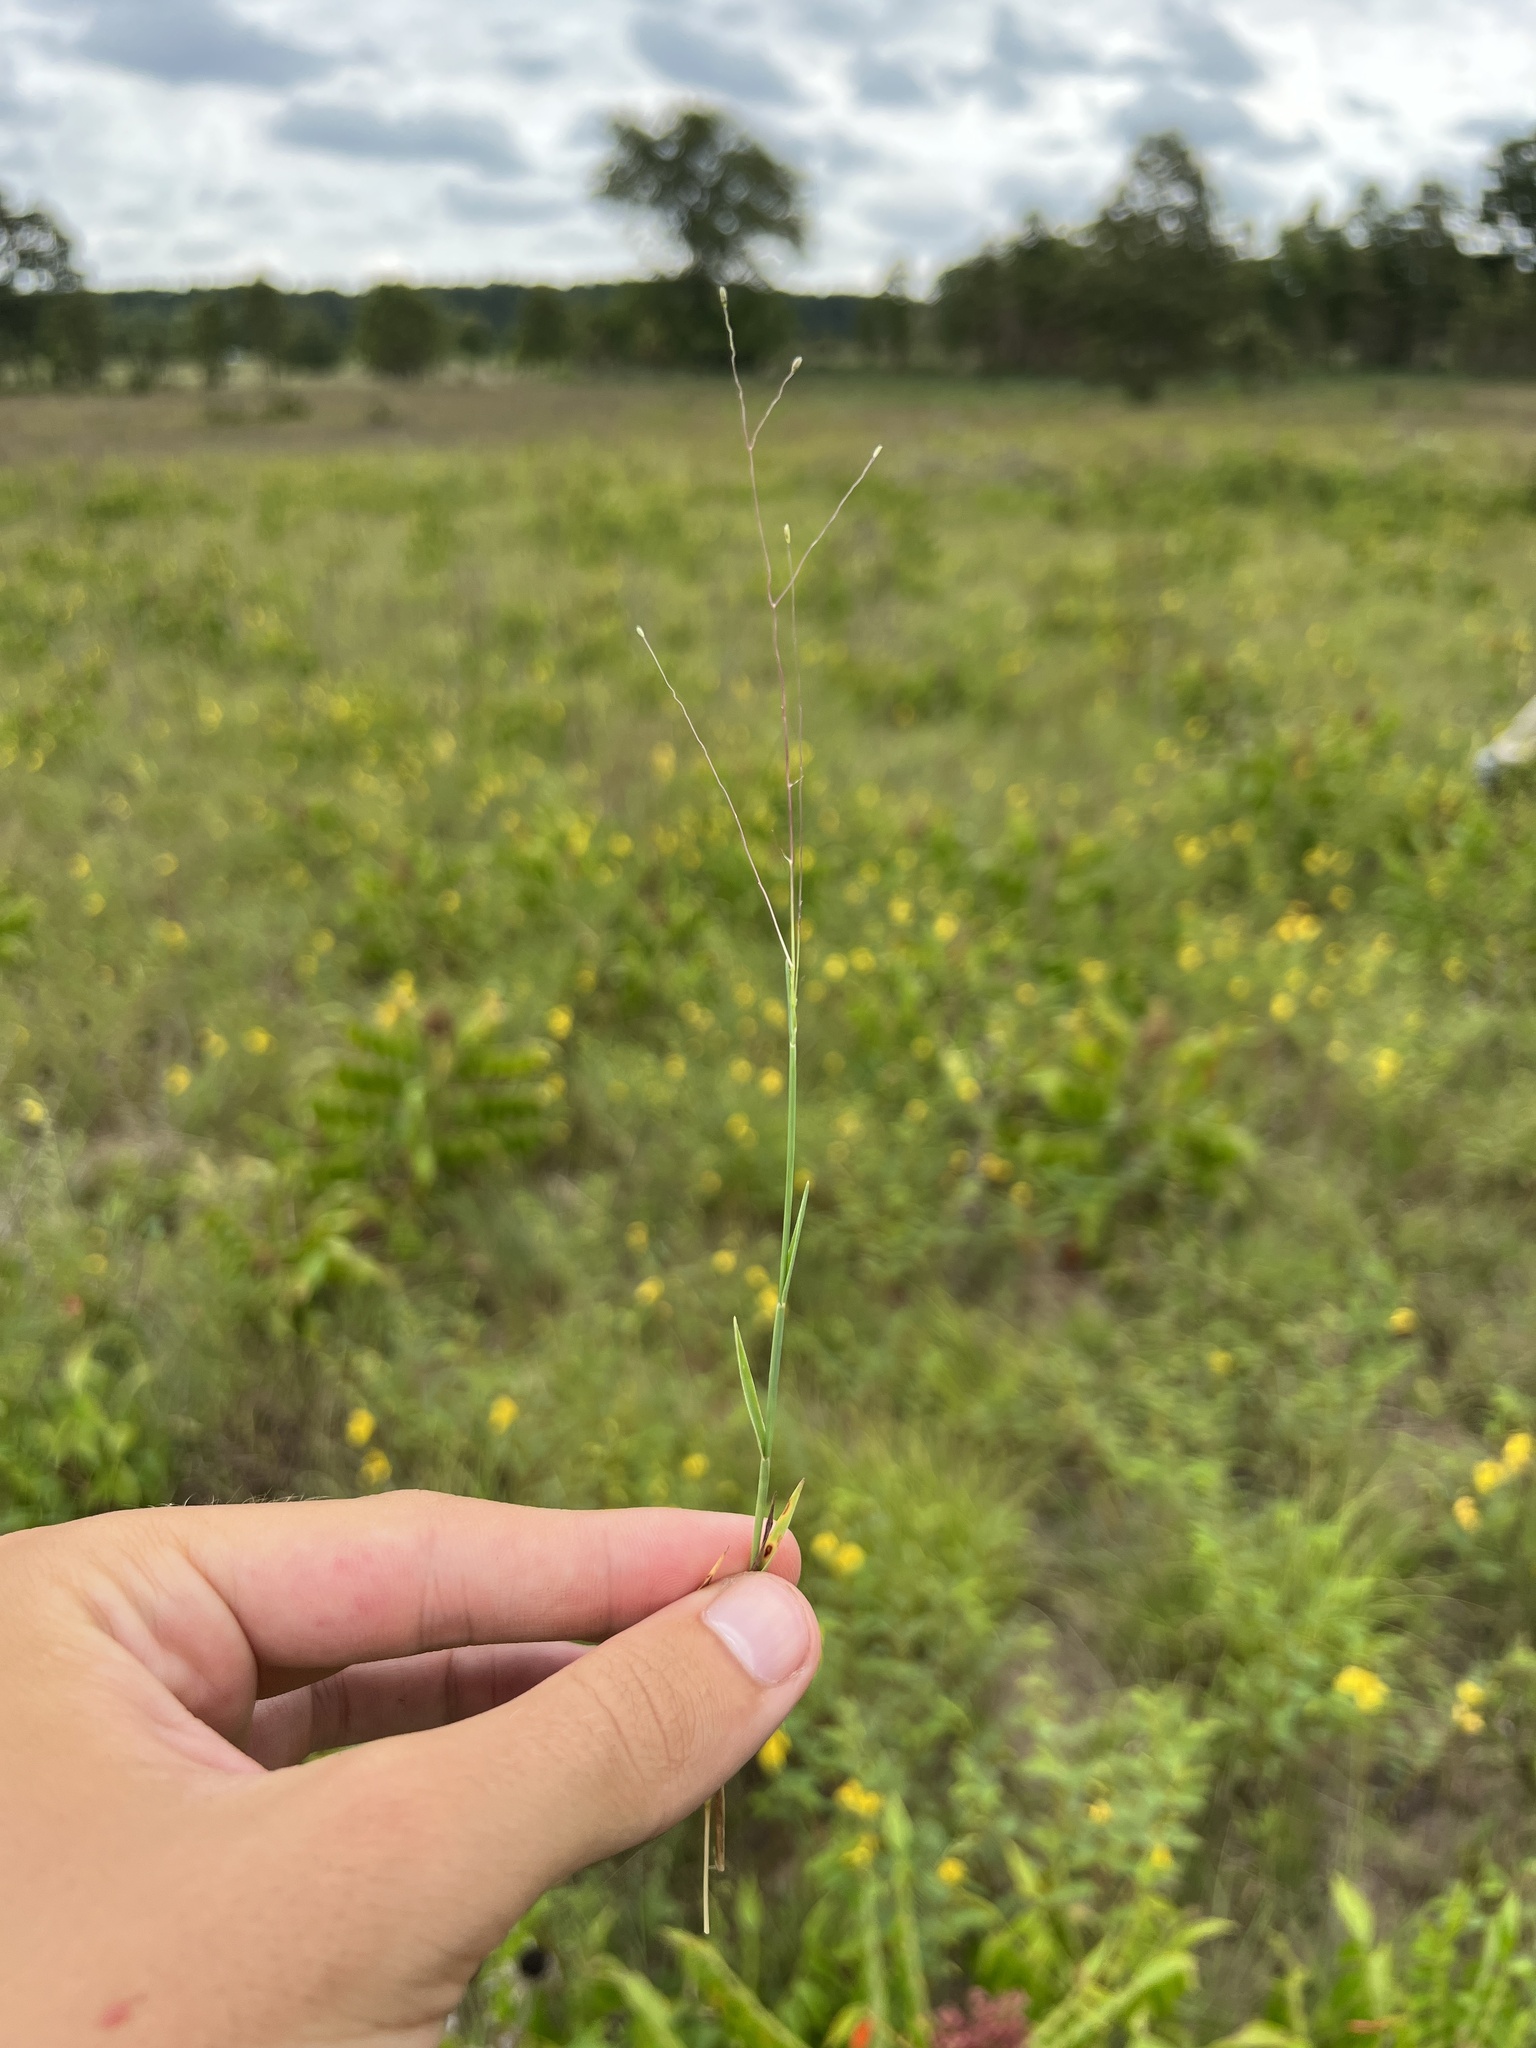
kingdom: Plantae
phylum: Tracheophyta
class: Liliopsida
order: Poales
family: Poaceae
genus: Digitaria
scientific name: Digitaria cognata
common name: Fall witchgrass
